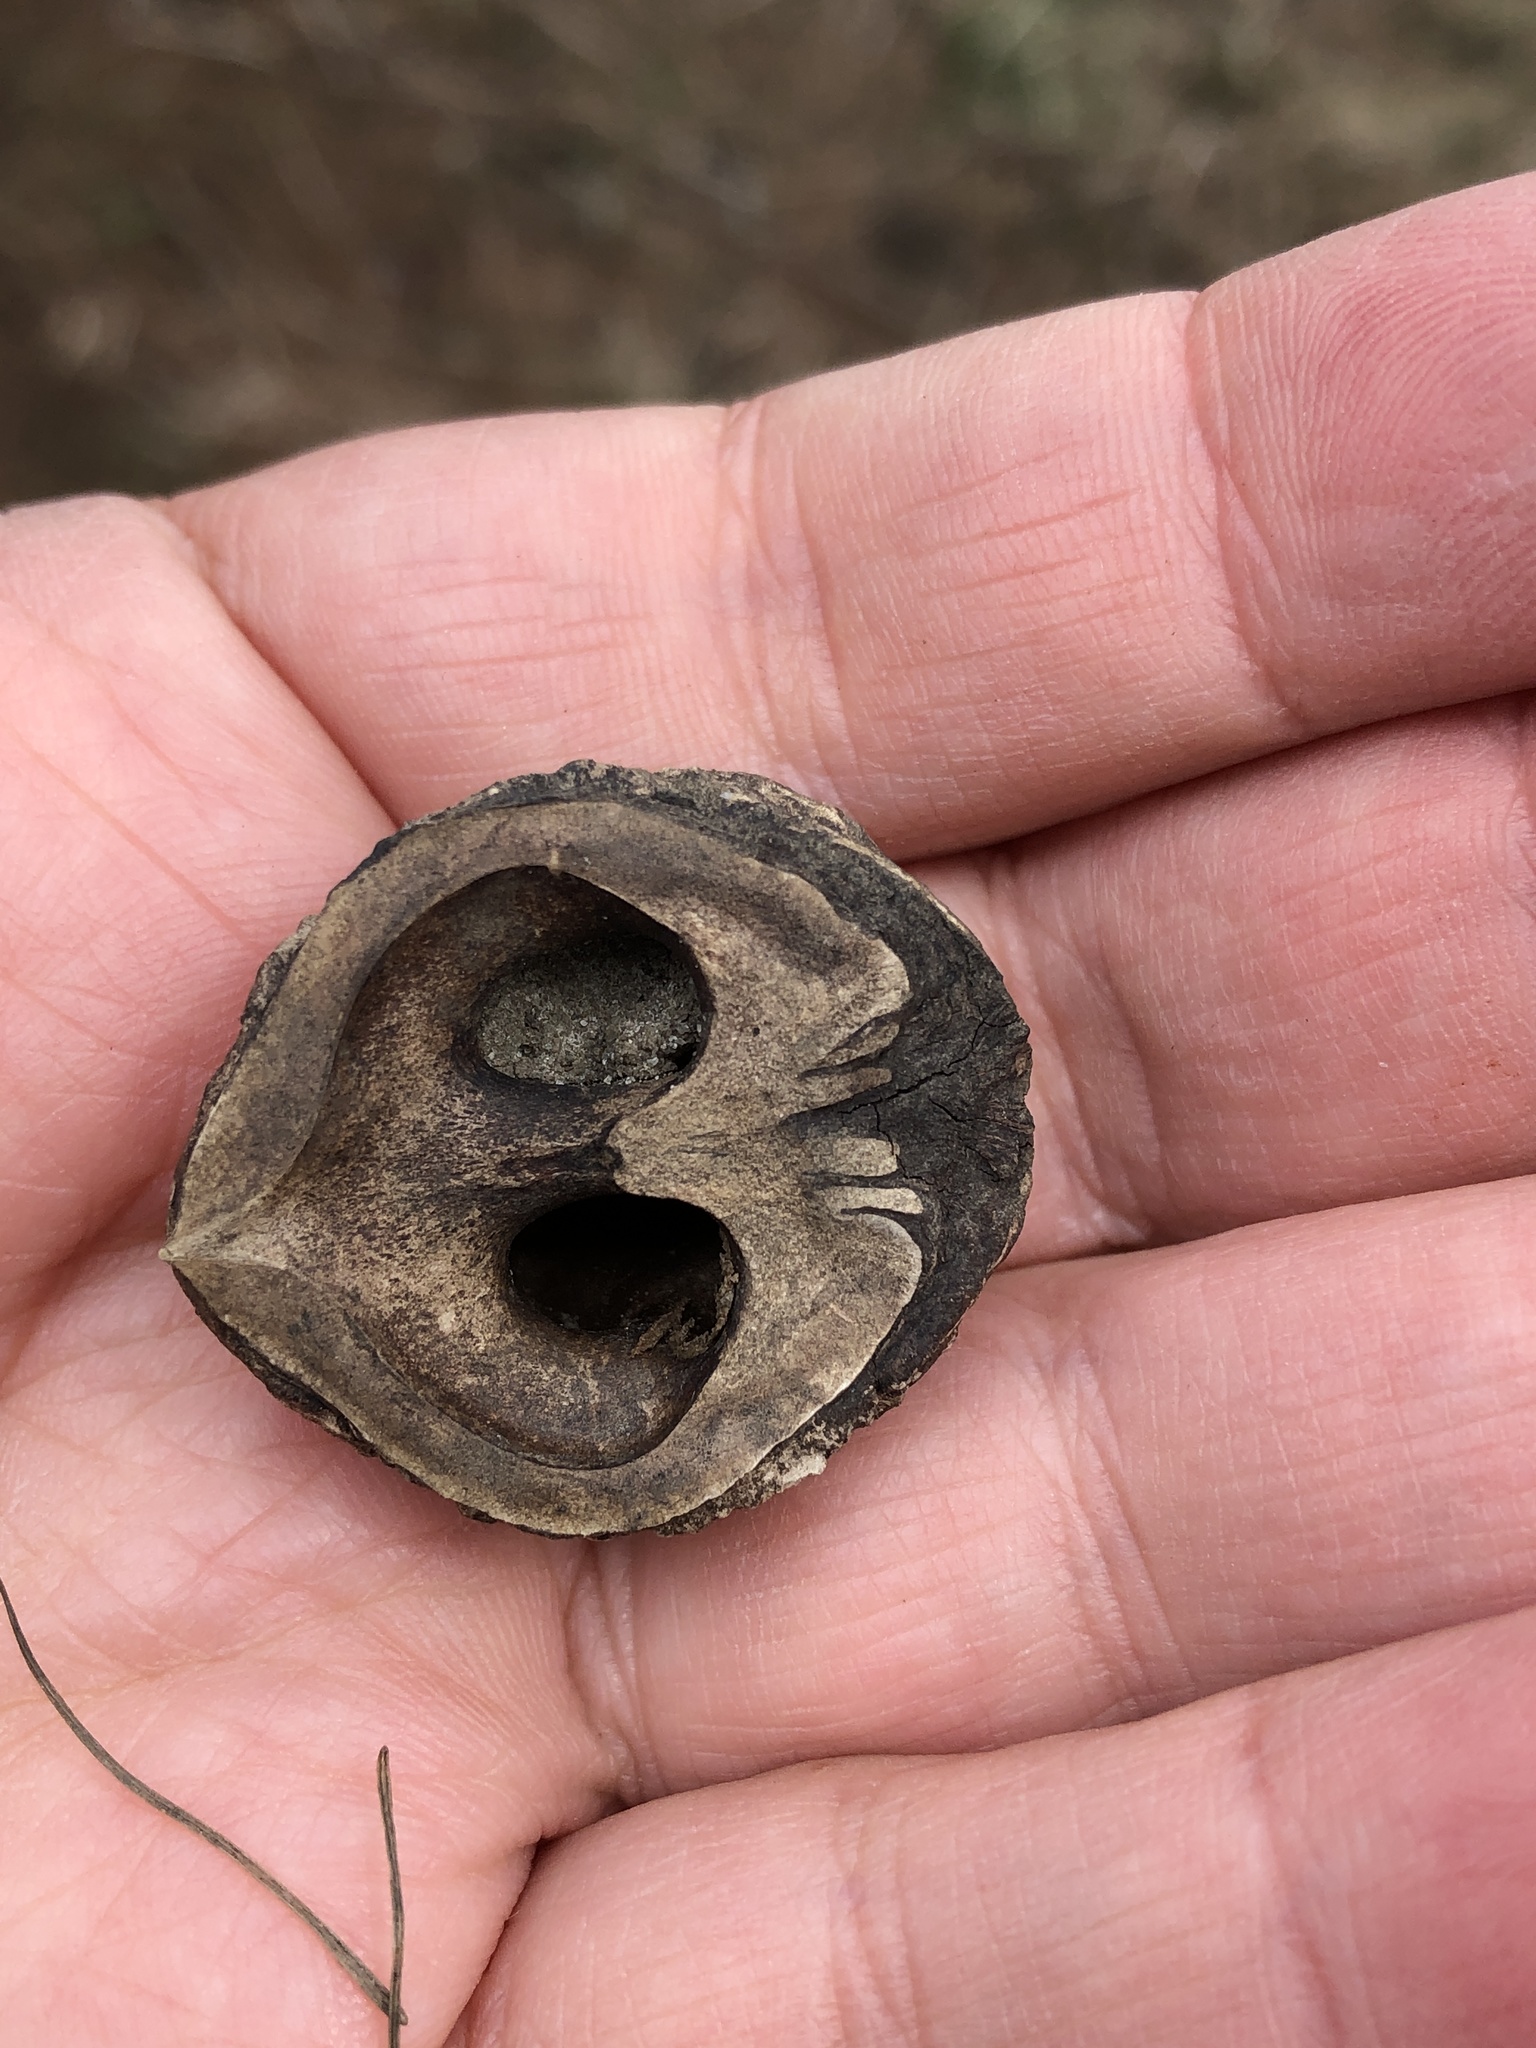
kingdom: Plantae
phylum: Tracheophyta
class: Magnoliopsida
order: Fagales
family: Juglandaceae
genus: Juglans
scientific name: Juglans nigra
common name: Black walnut
